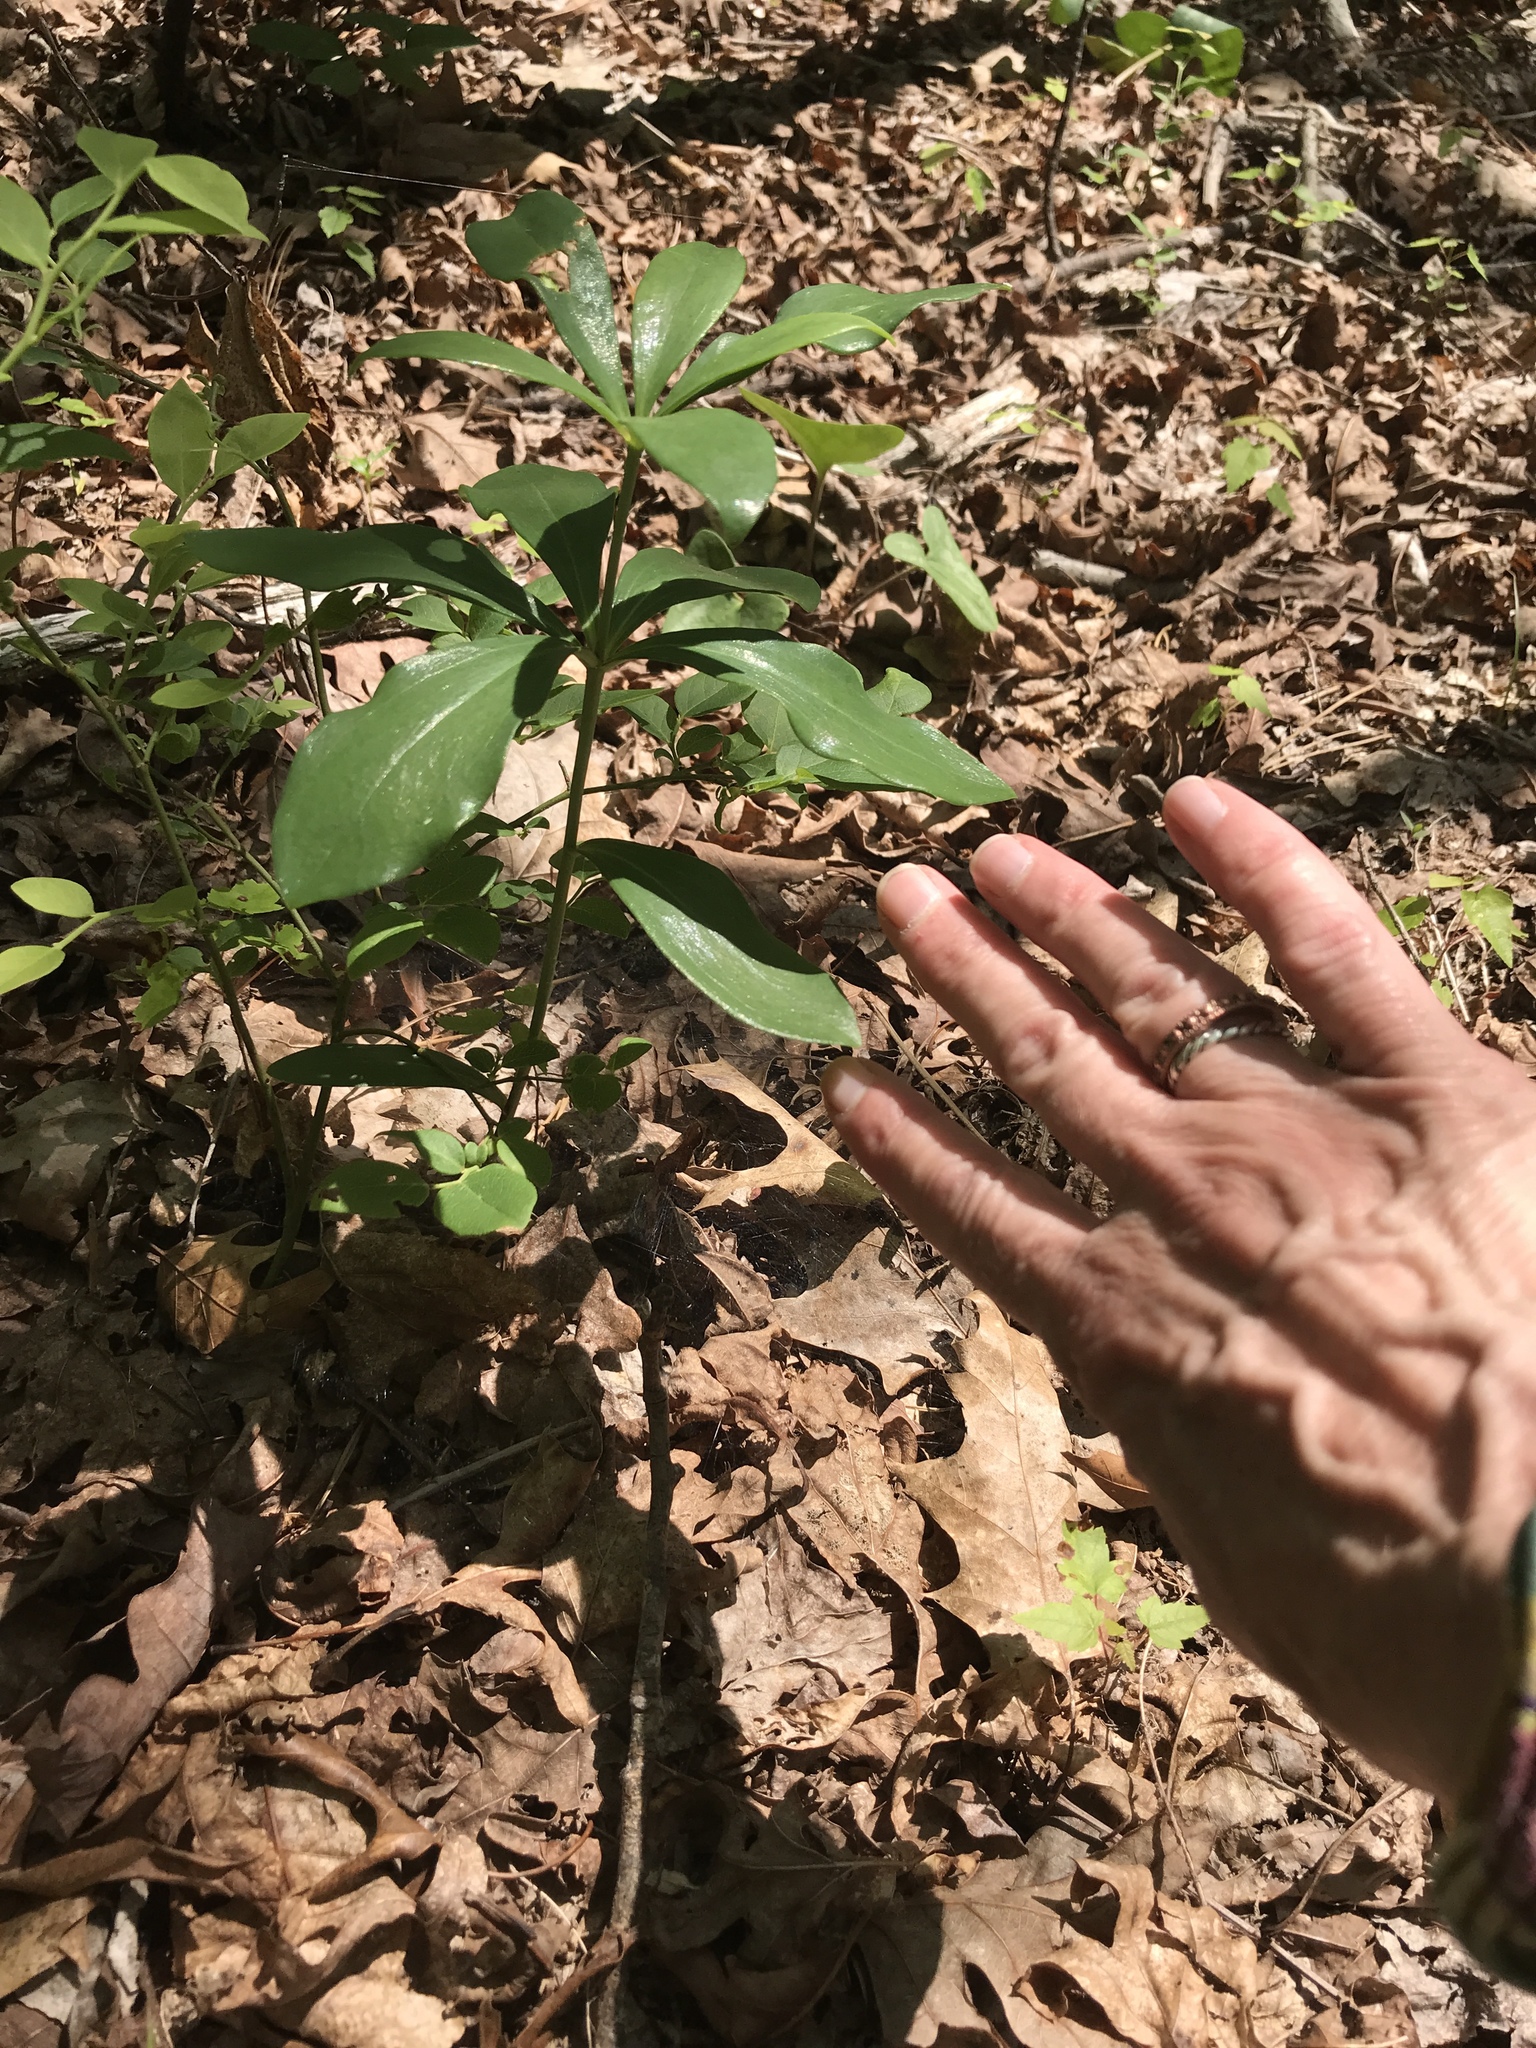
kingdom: Plantae
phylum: Tracheophyta
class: Liliopsida
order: Liliales
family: Liliaceae
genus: Lilium
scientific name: Lilium michauxii
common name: Carolina lily
